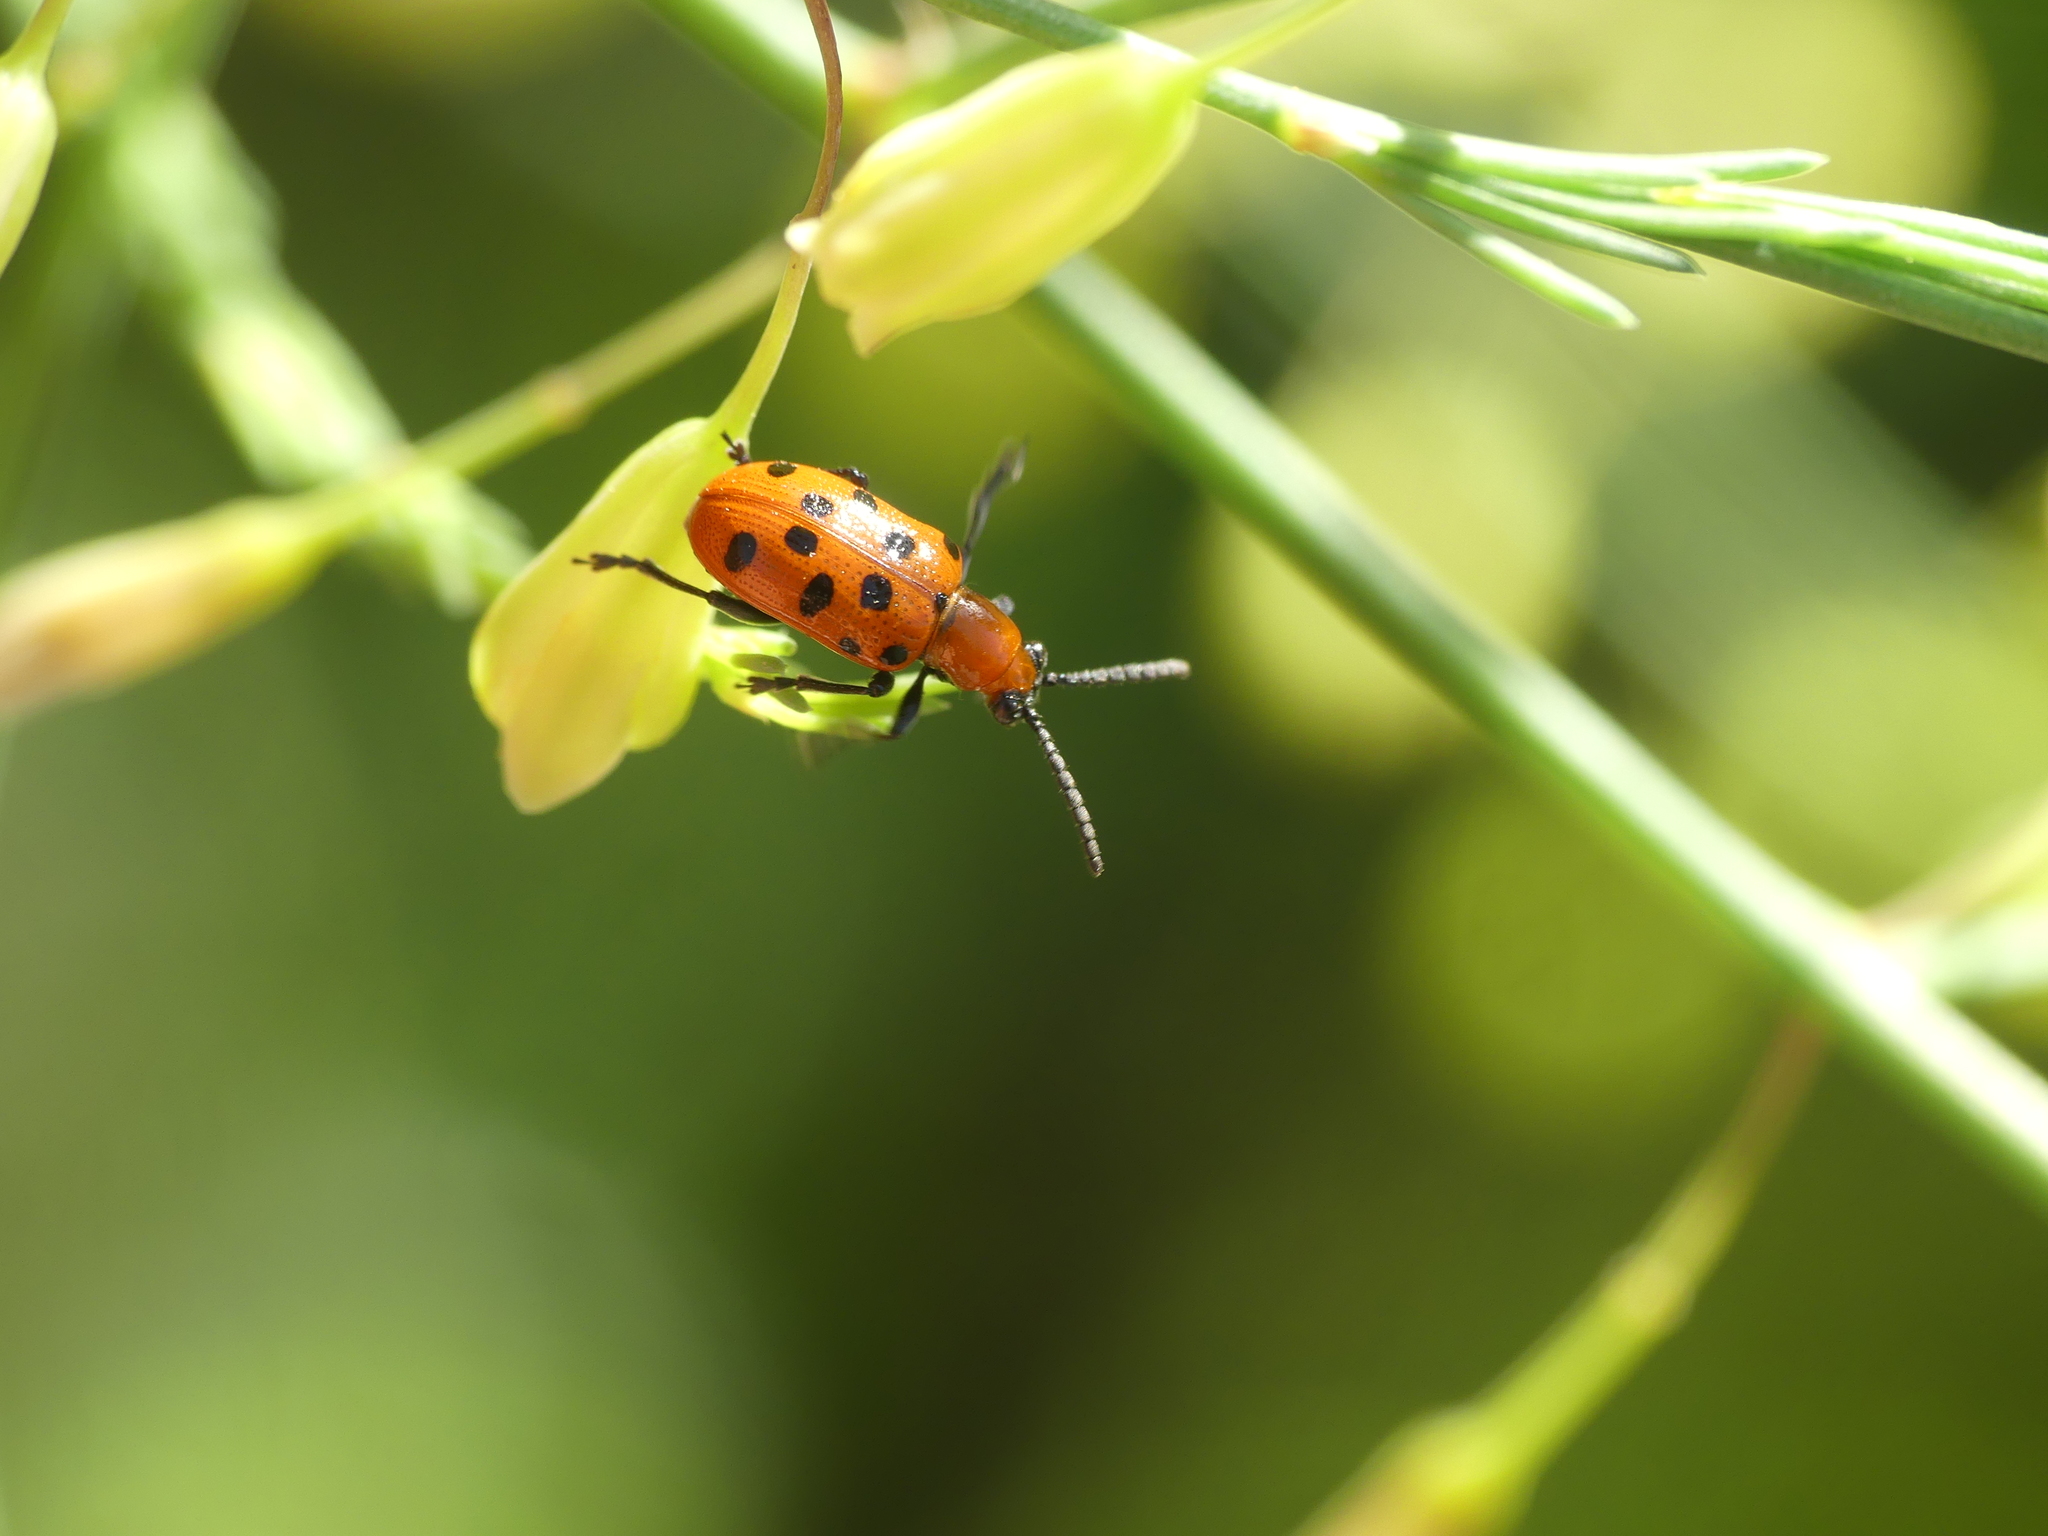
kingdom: Animalia
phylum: Arthropoda
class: Insecta
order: Coleoptera
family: Chrysomelidae
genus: Crioceris
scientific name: Crioceris duodecimpunctata
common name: Twelve-spotted asparagus beetle
